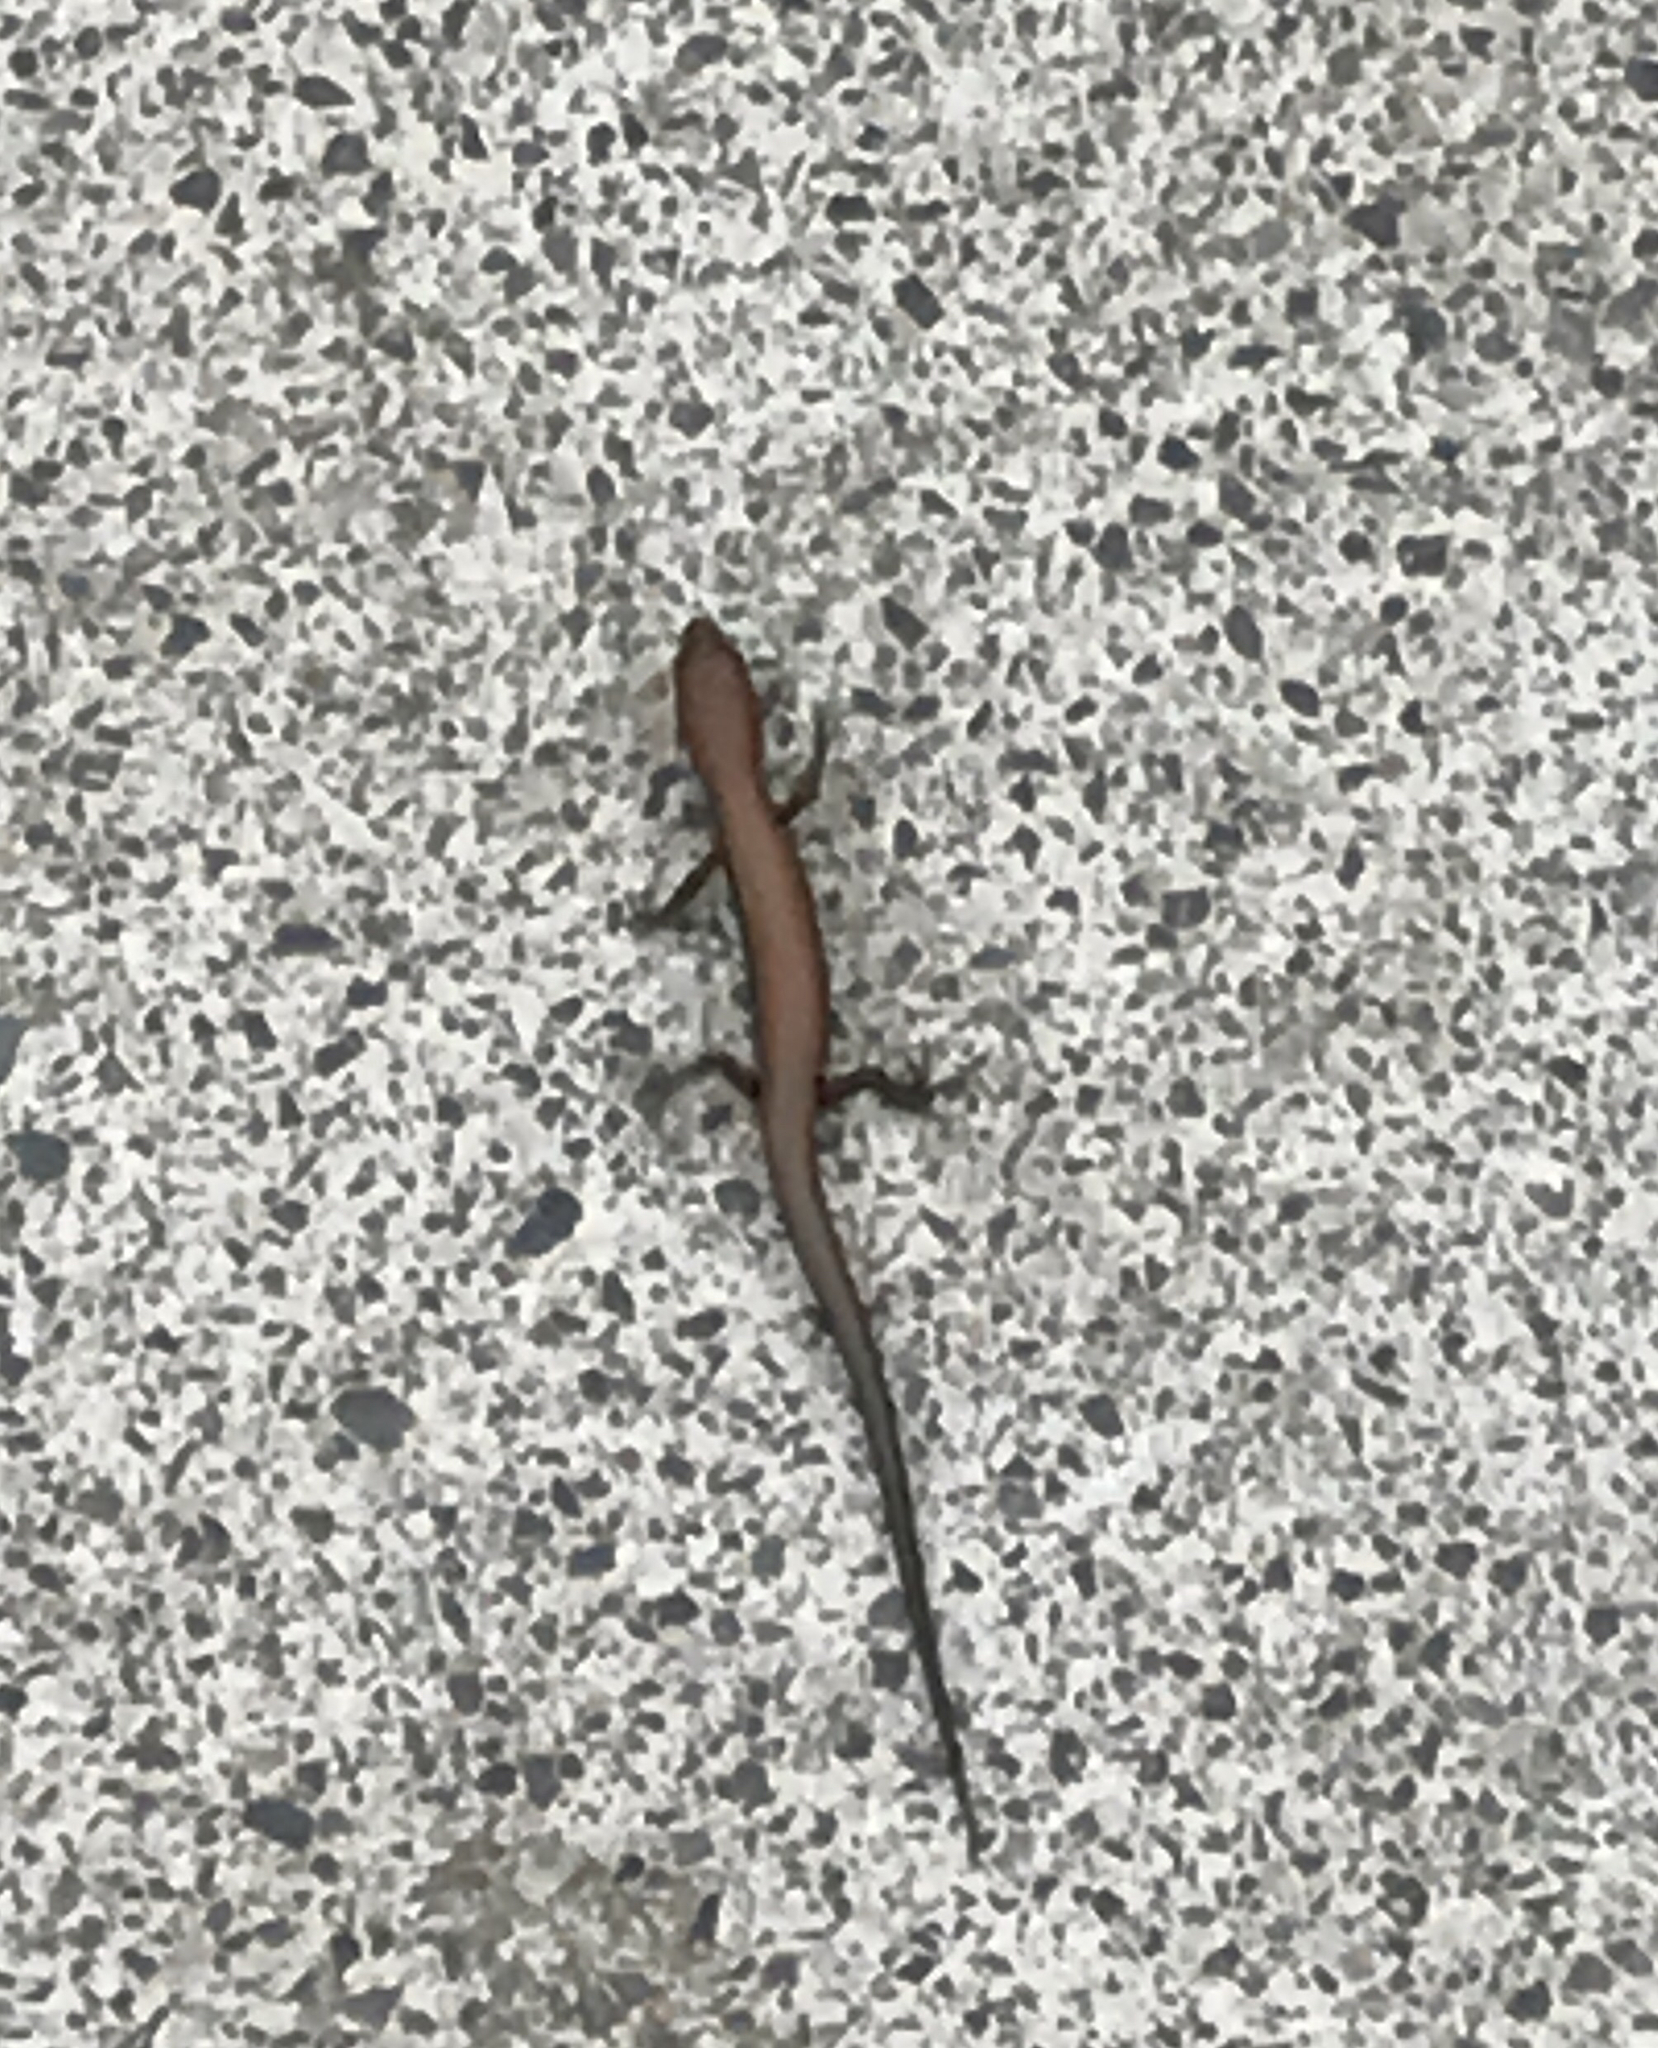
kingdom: Animalia
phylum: Chordata
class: Squamata
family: Scincidae
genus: Scincella
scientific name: Scincella silvicola
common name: Taylor’s ground skink
